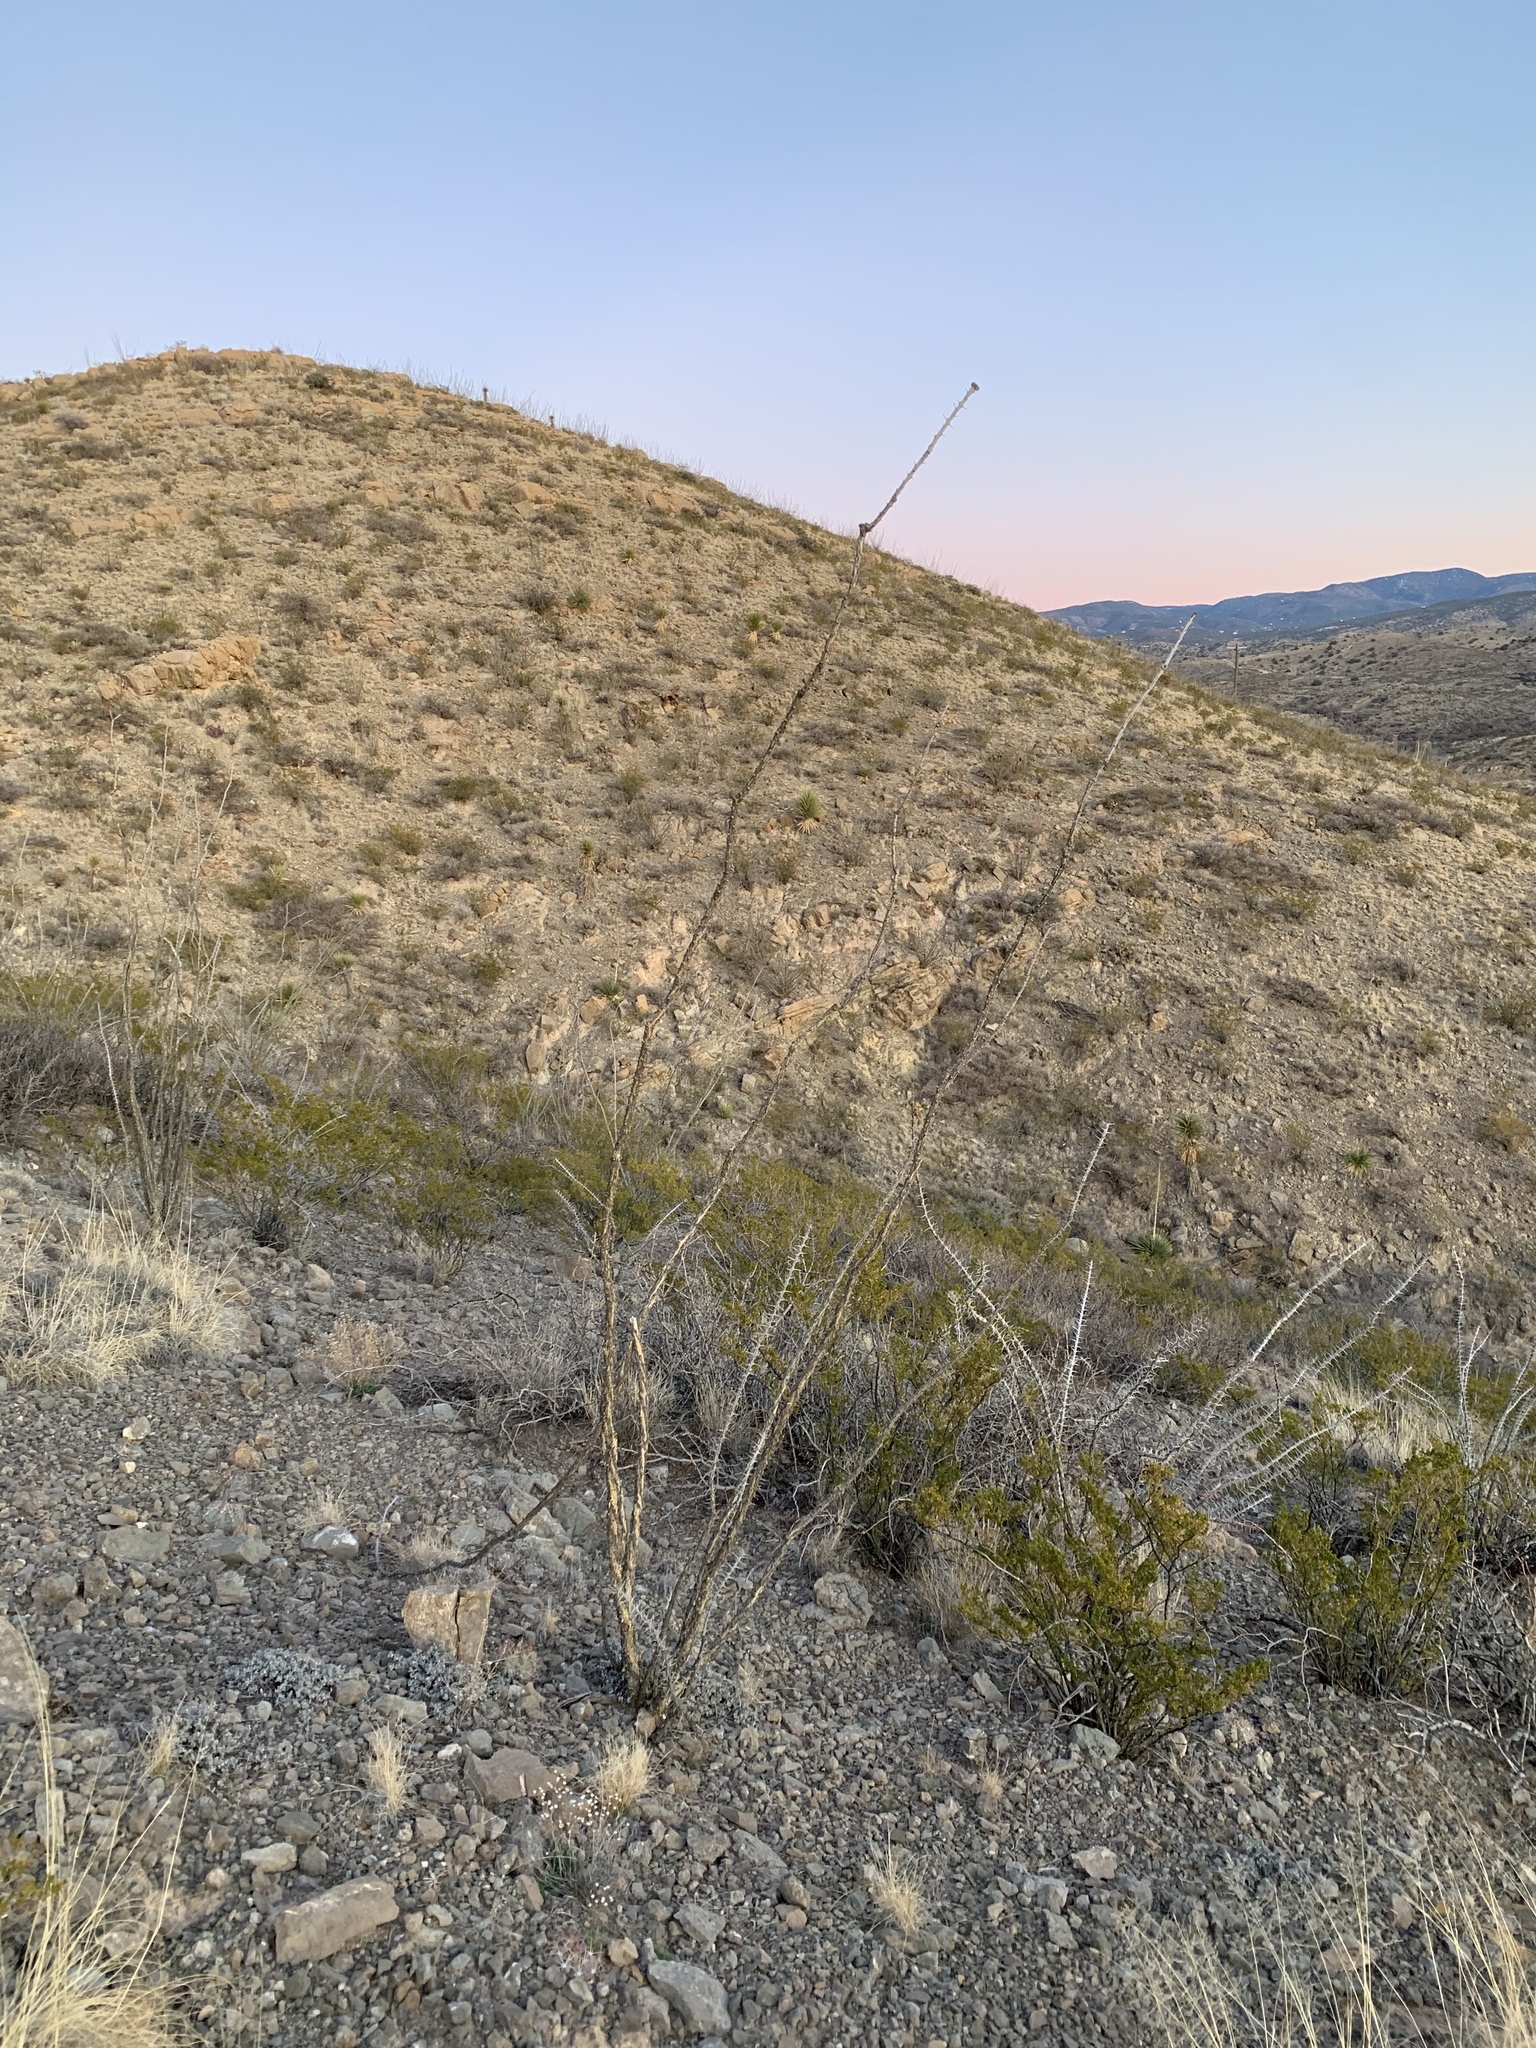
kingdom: Plantae
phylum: Tracheophyta
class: Magnoliopsida
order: Ericales
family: Fouquieriaceae
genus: Fouquieria
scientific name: Fouquieria splendens
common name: Vine-cactus
